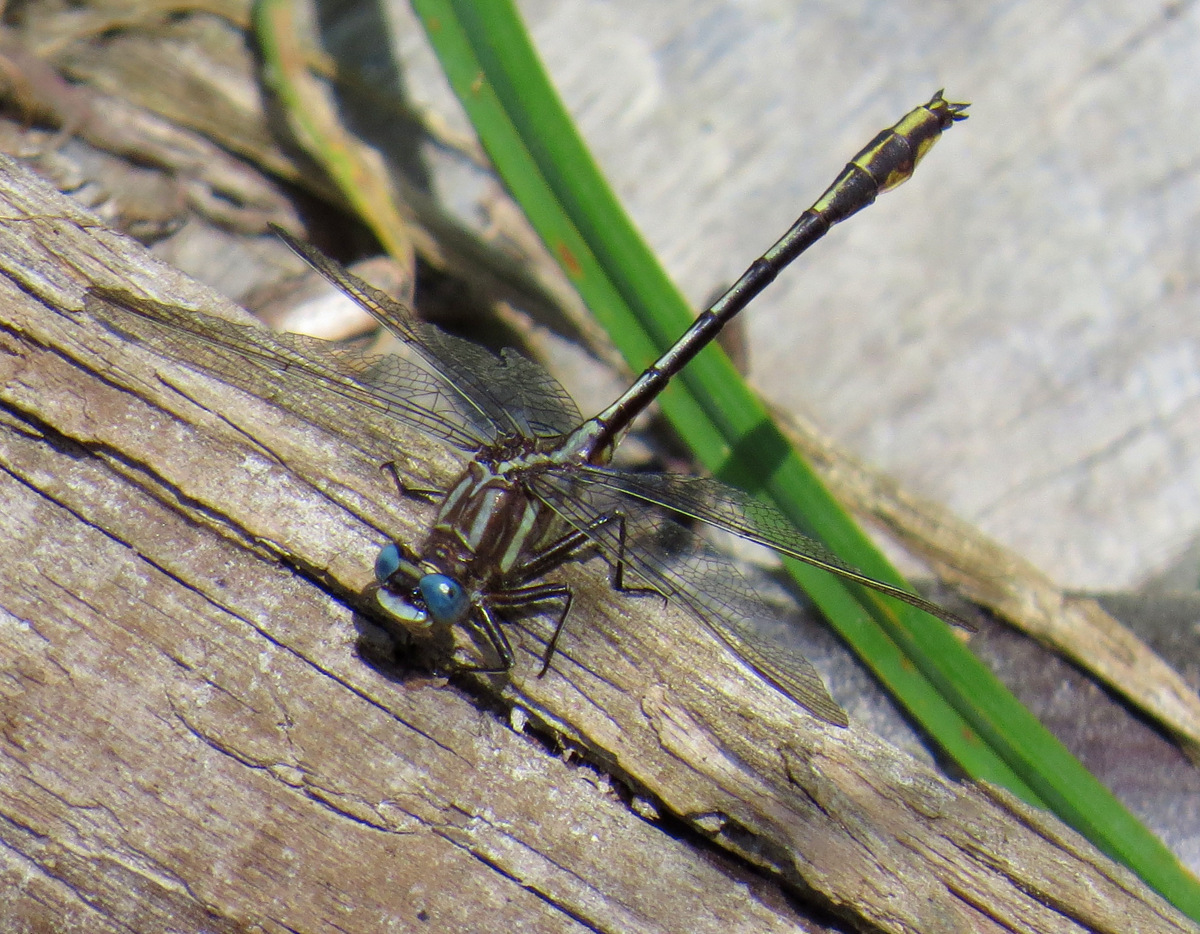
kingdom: Animalia
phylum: Arthropoda
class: Insecta
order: Odonata
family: Gomphidae
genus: Phanogomphus
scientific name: Phanogomphus exilis
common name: Lancet clubtail
